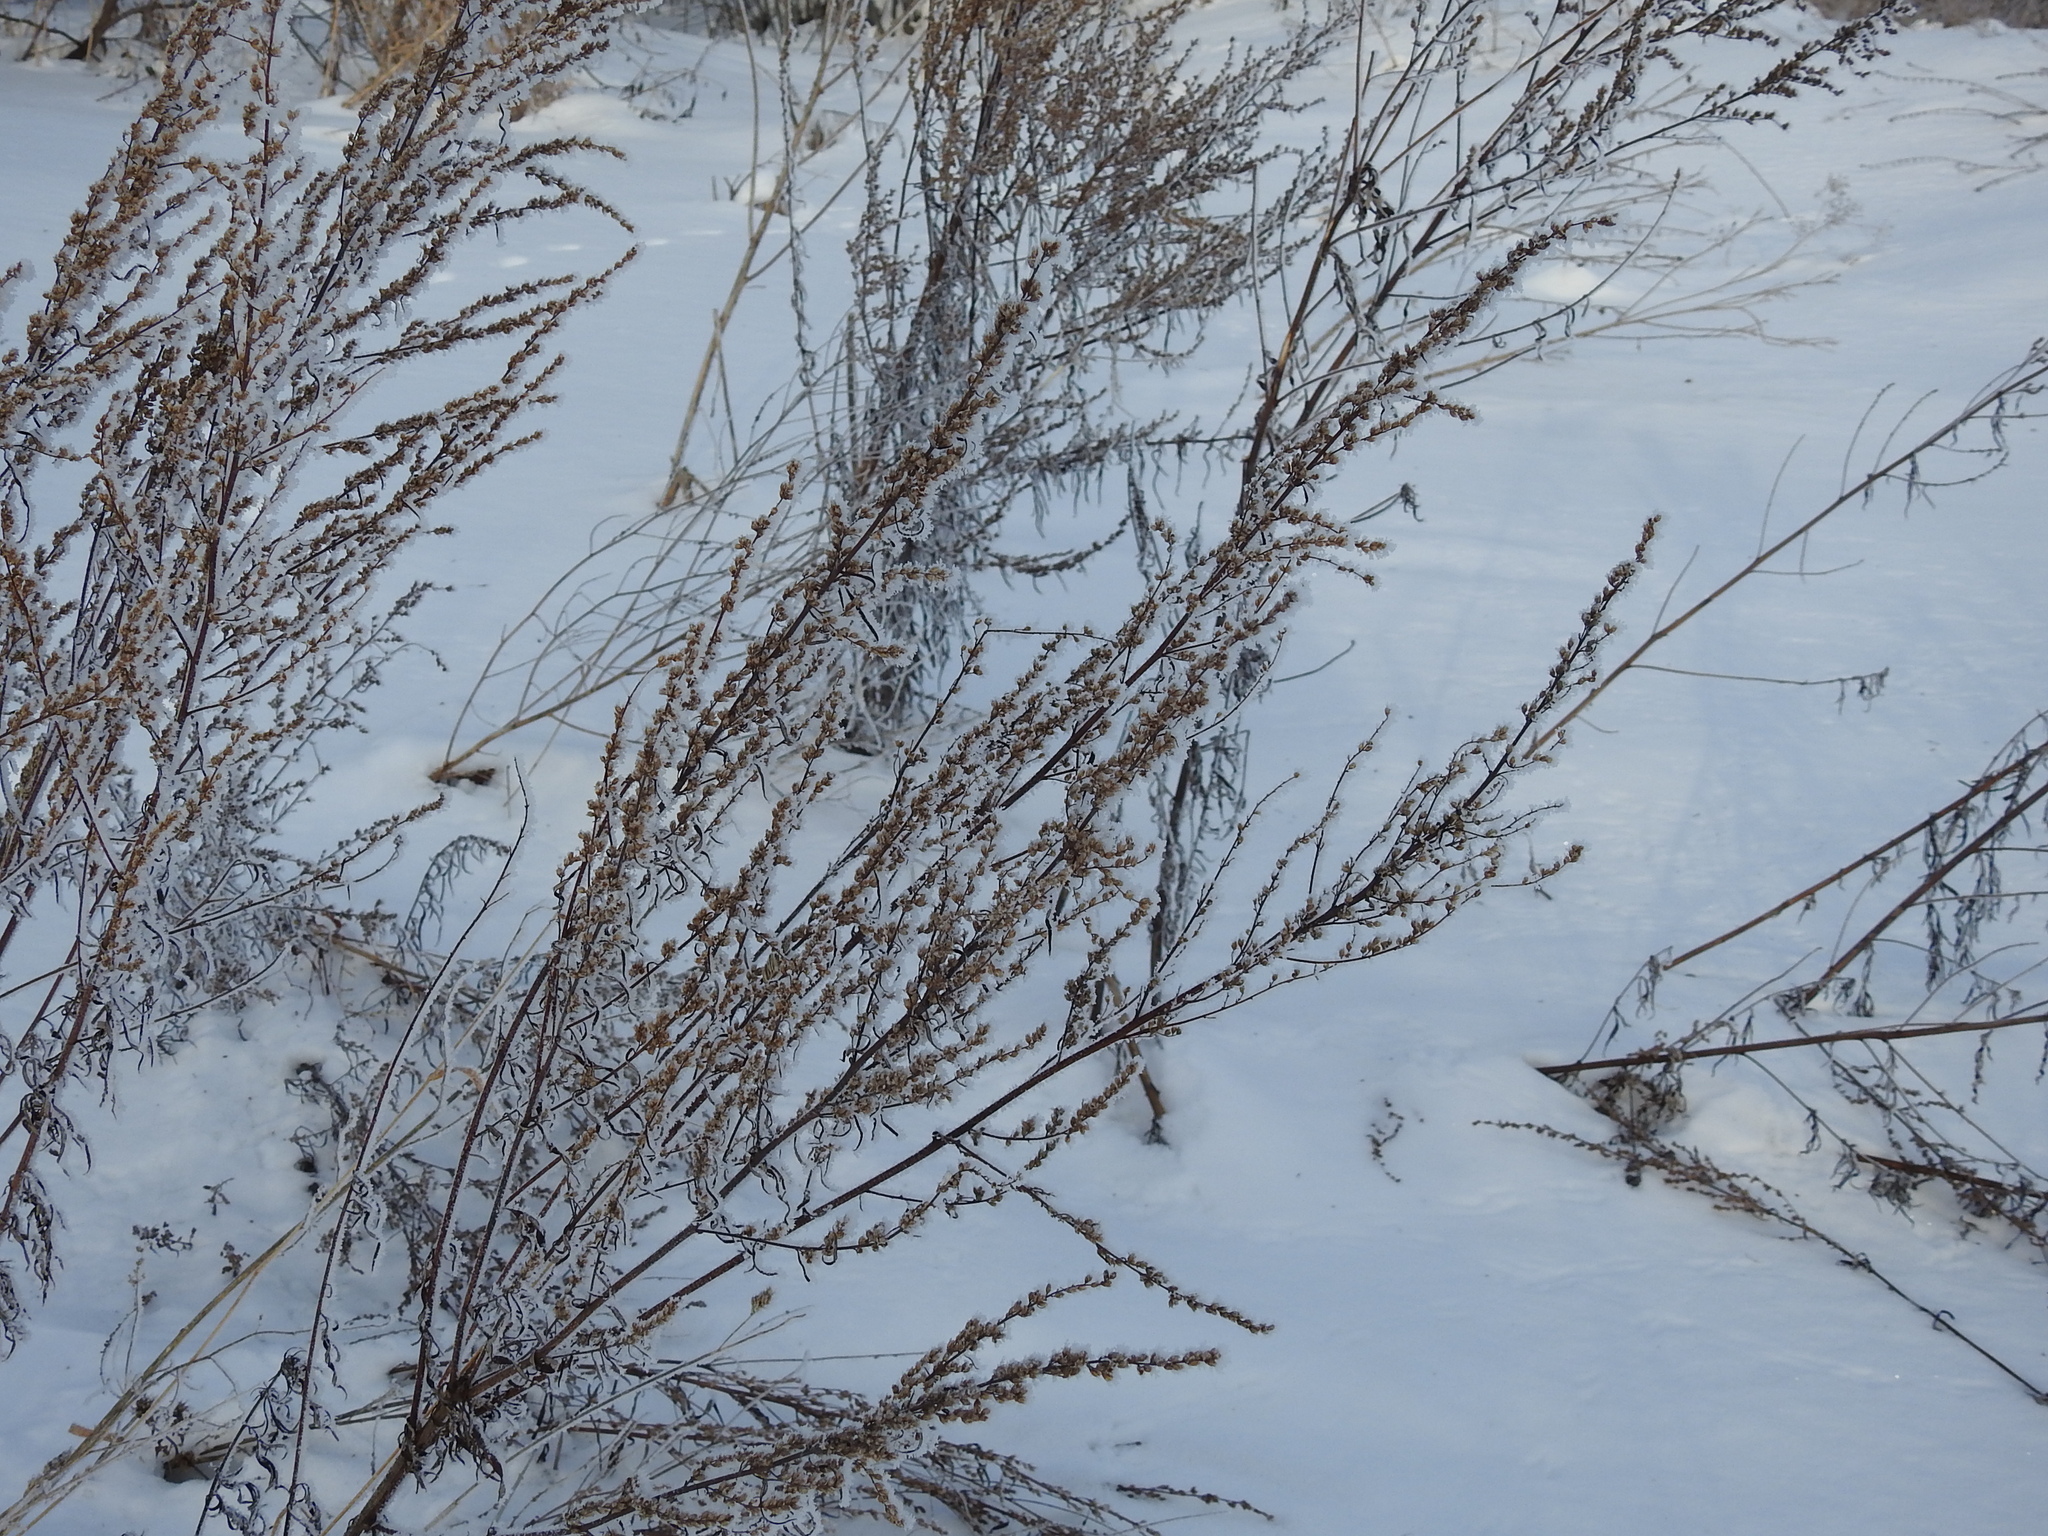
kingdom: Plantae
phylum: Tracheophyta
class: Magnoliopsida
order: Asterales
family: Asteraceae
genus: Artemisia
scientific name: Artemisia vulgaris
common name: Mugwort
